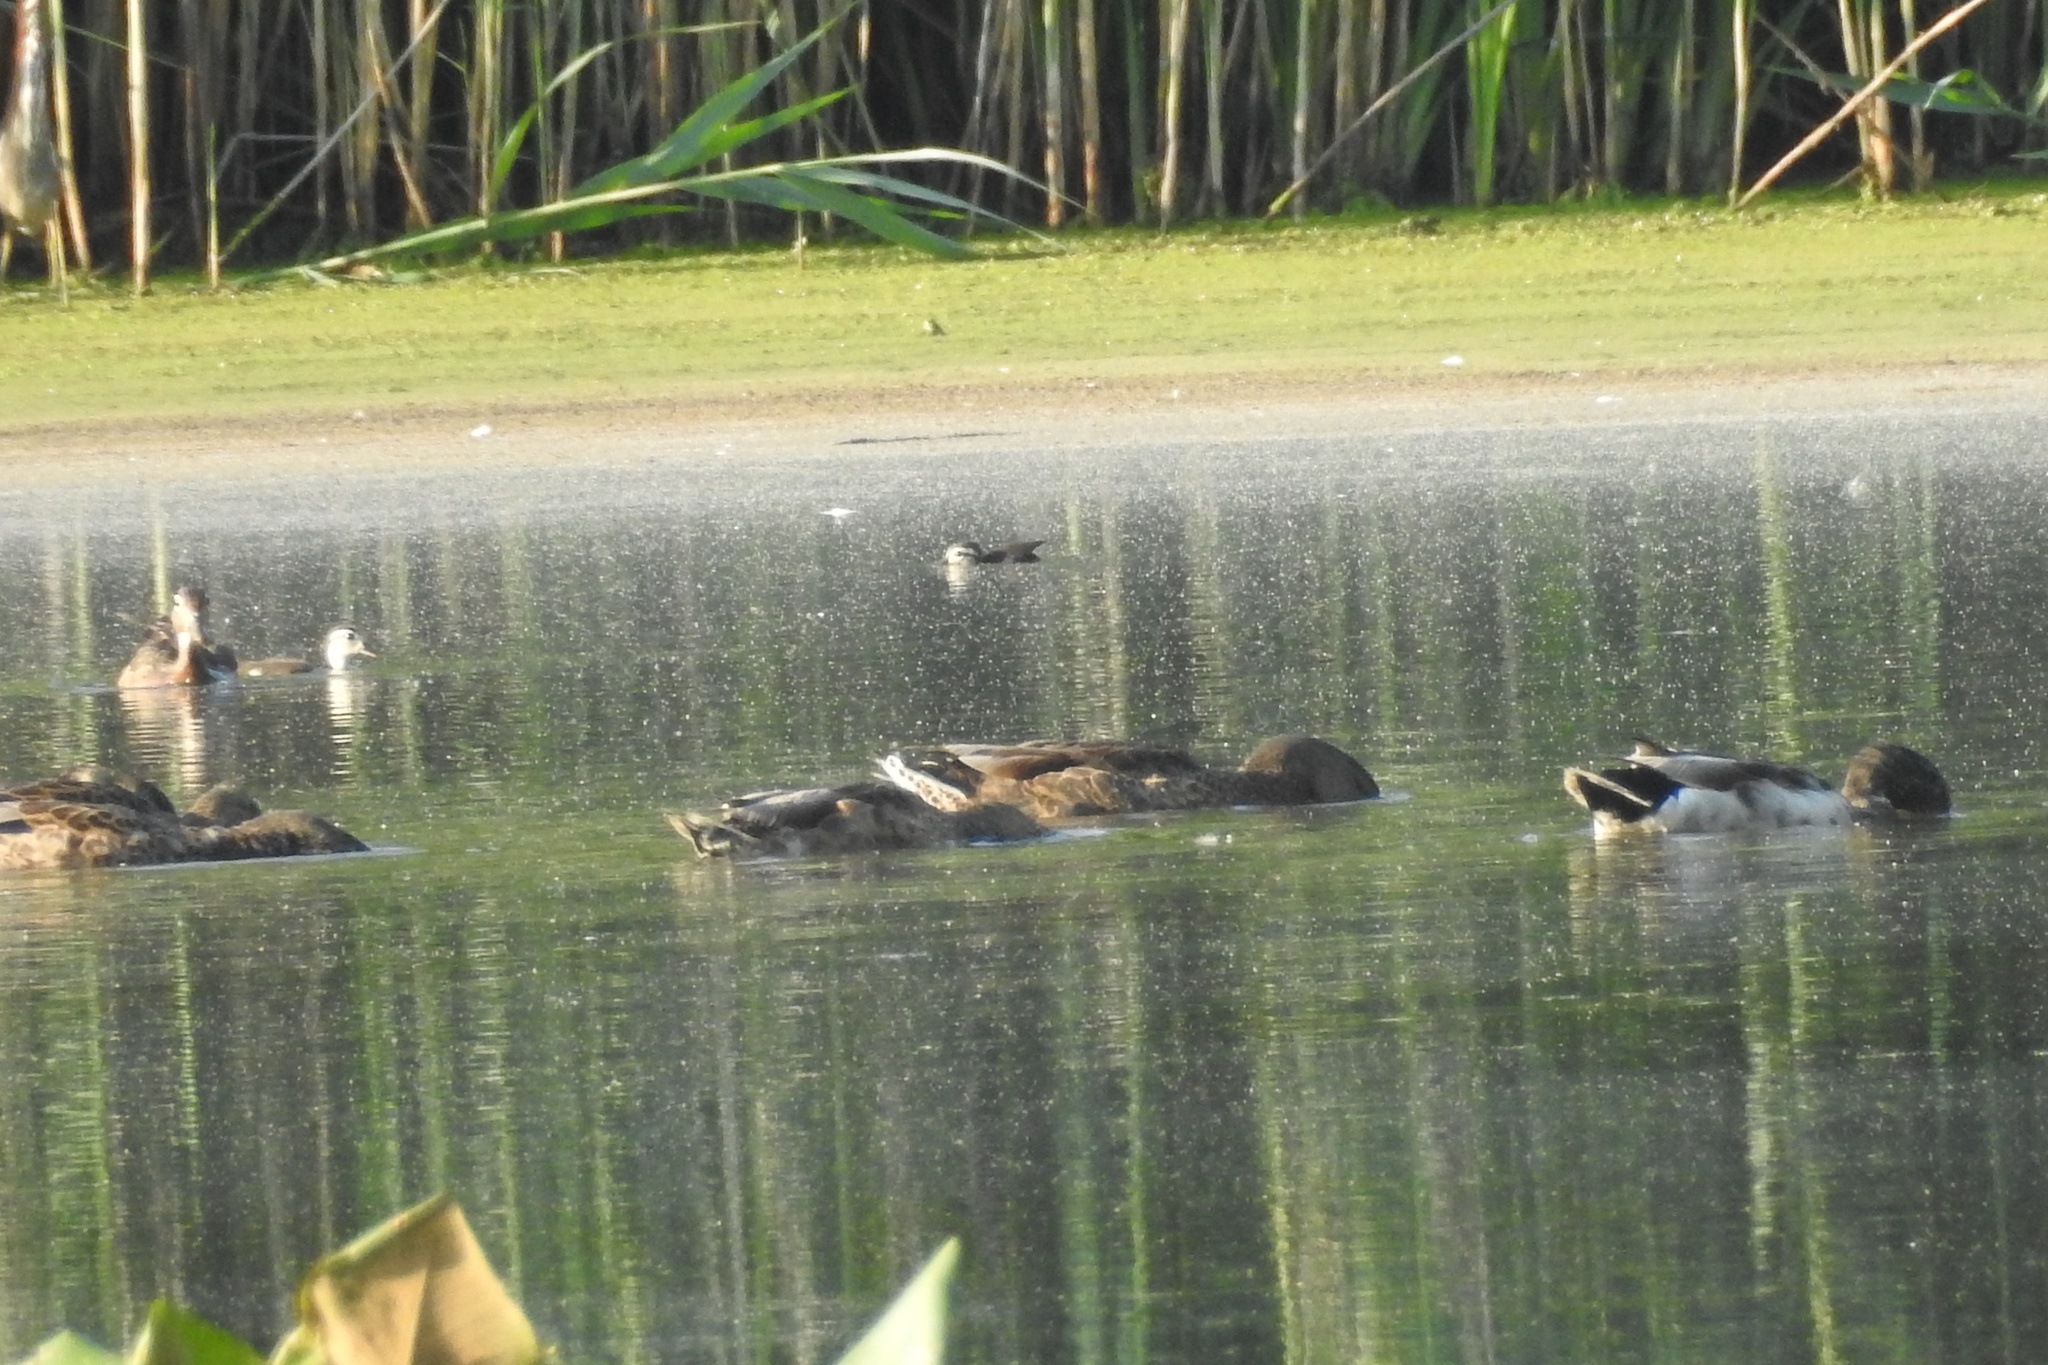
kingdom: Animalia
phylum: Chordata
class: Aves
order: Anseriformes
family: Anatidae
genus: Anas
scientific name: Anas platyrhynchos
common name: Mallard
